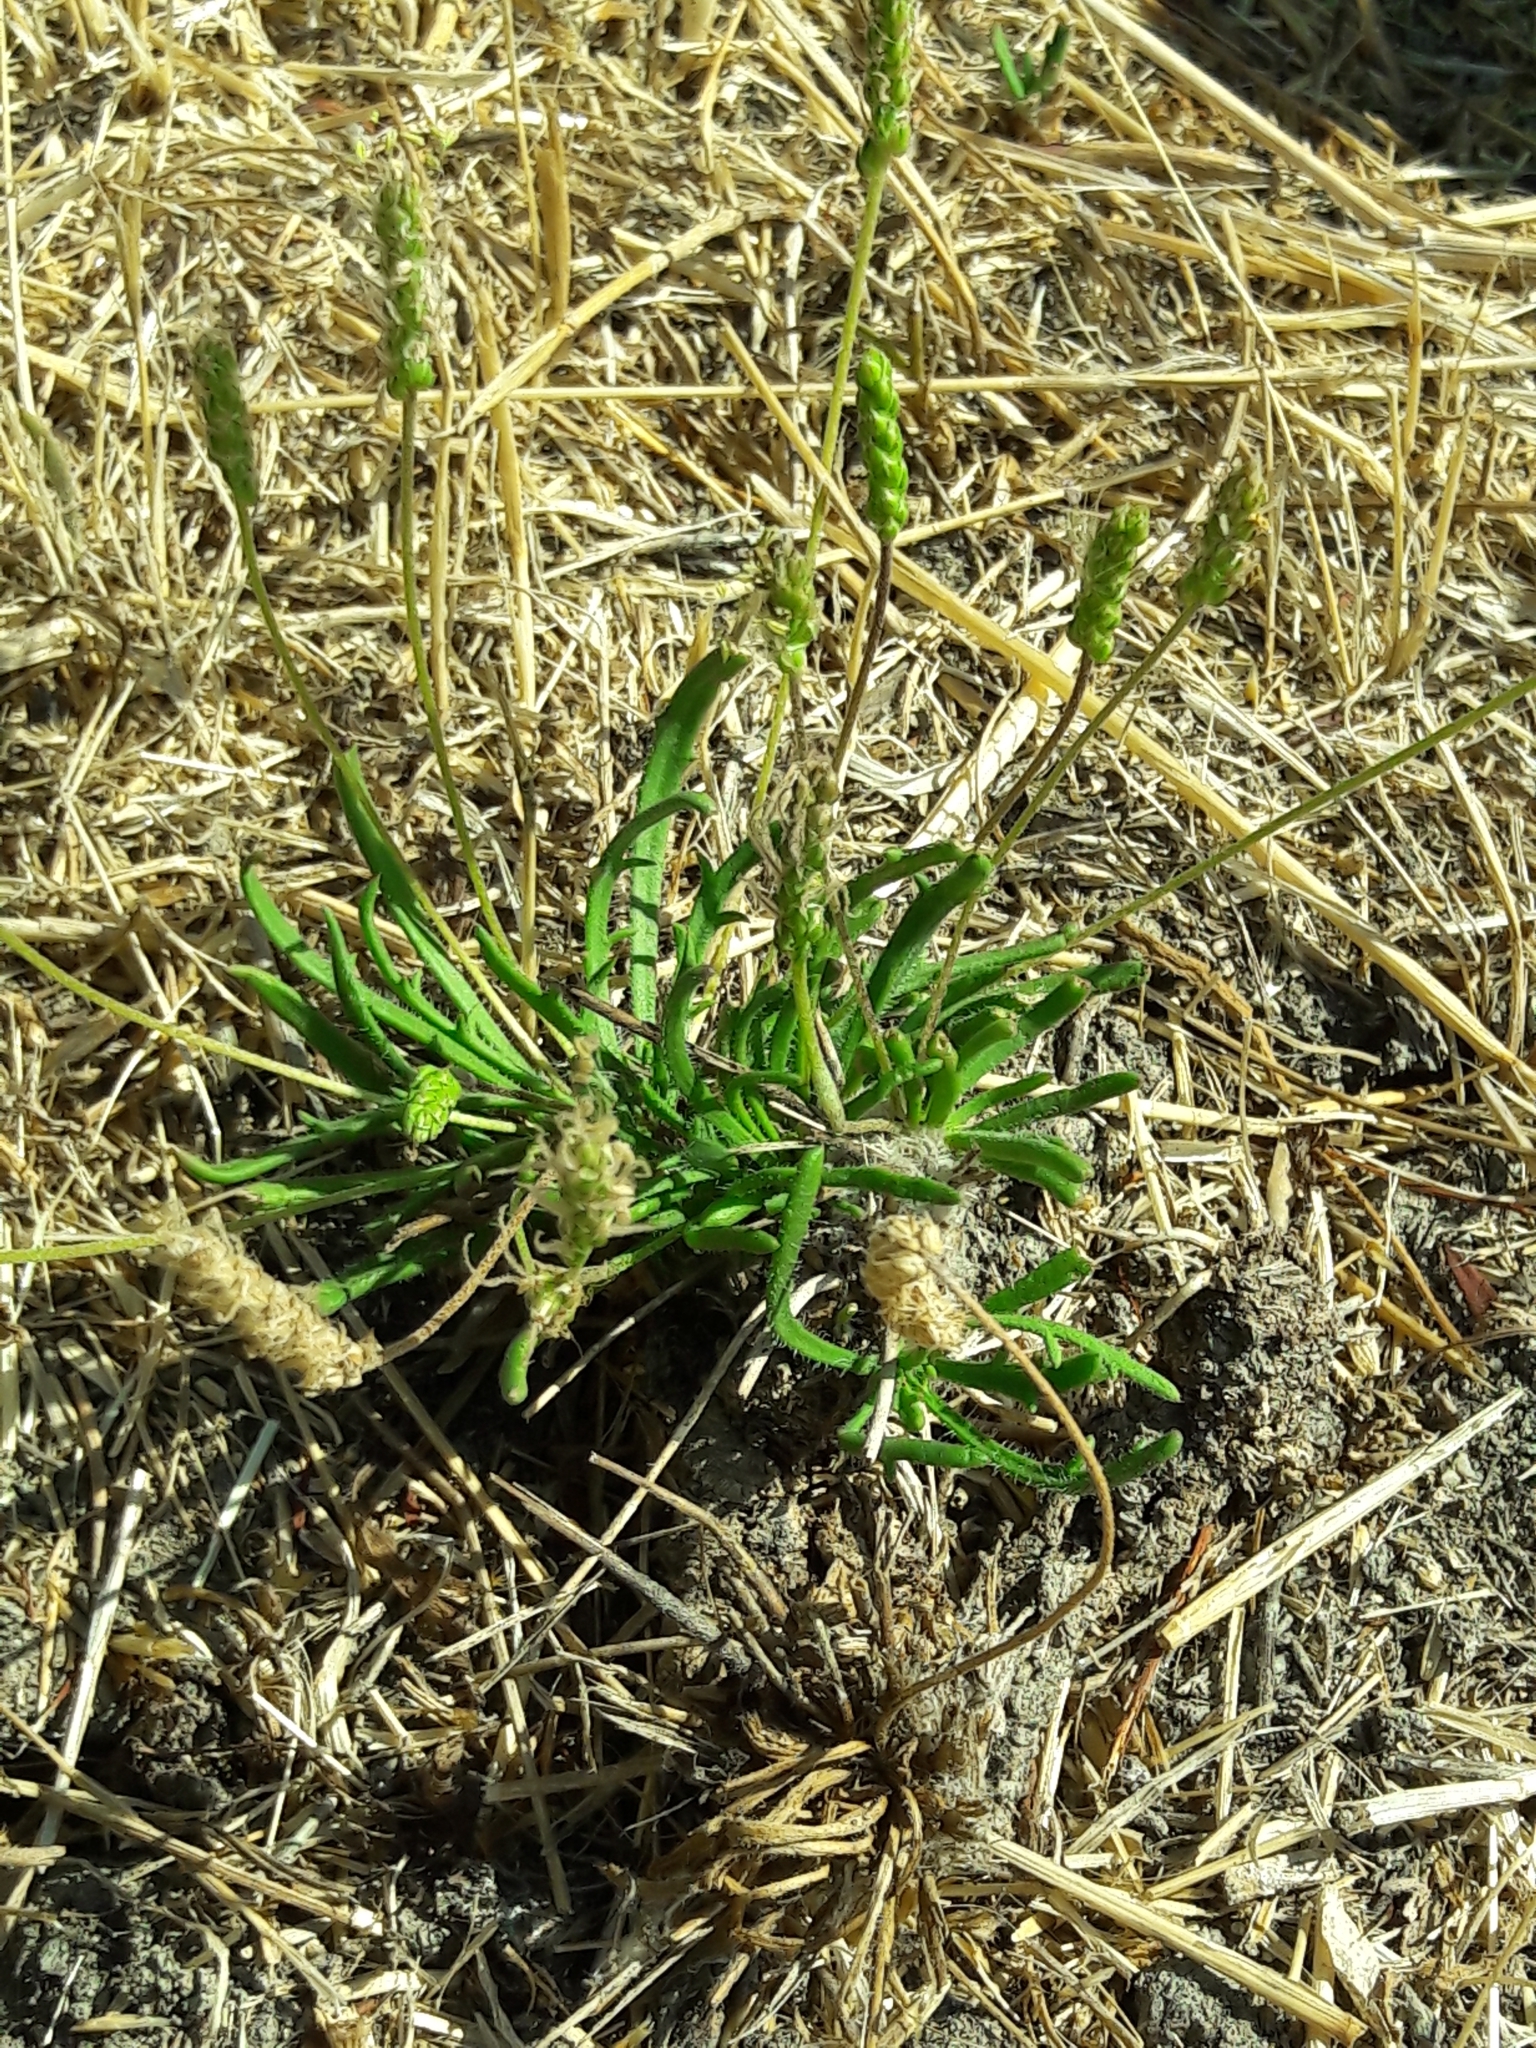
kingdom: Plantae
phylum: Tracheophyta
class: Magnoliopsida
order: Lamiales
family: Plantaginaceae
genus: Plantago
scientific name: Plantago coronopus
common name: Buck's-horn plantain
